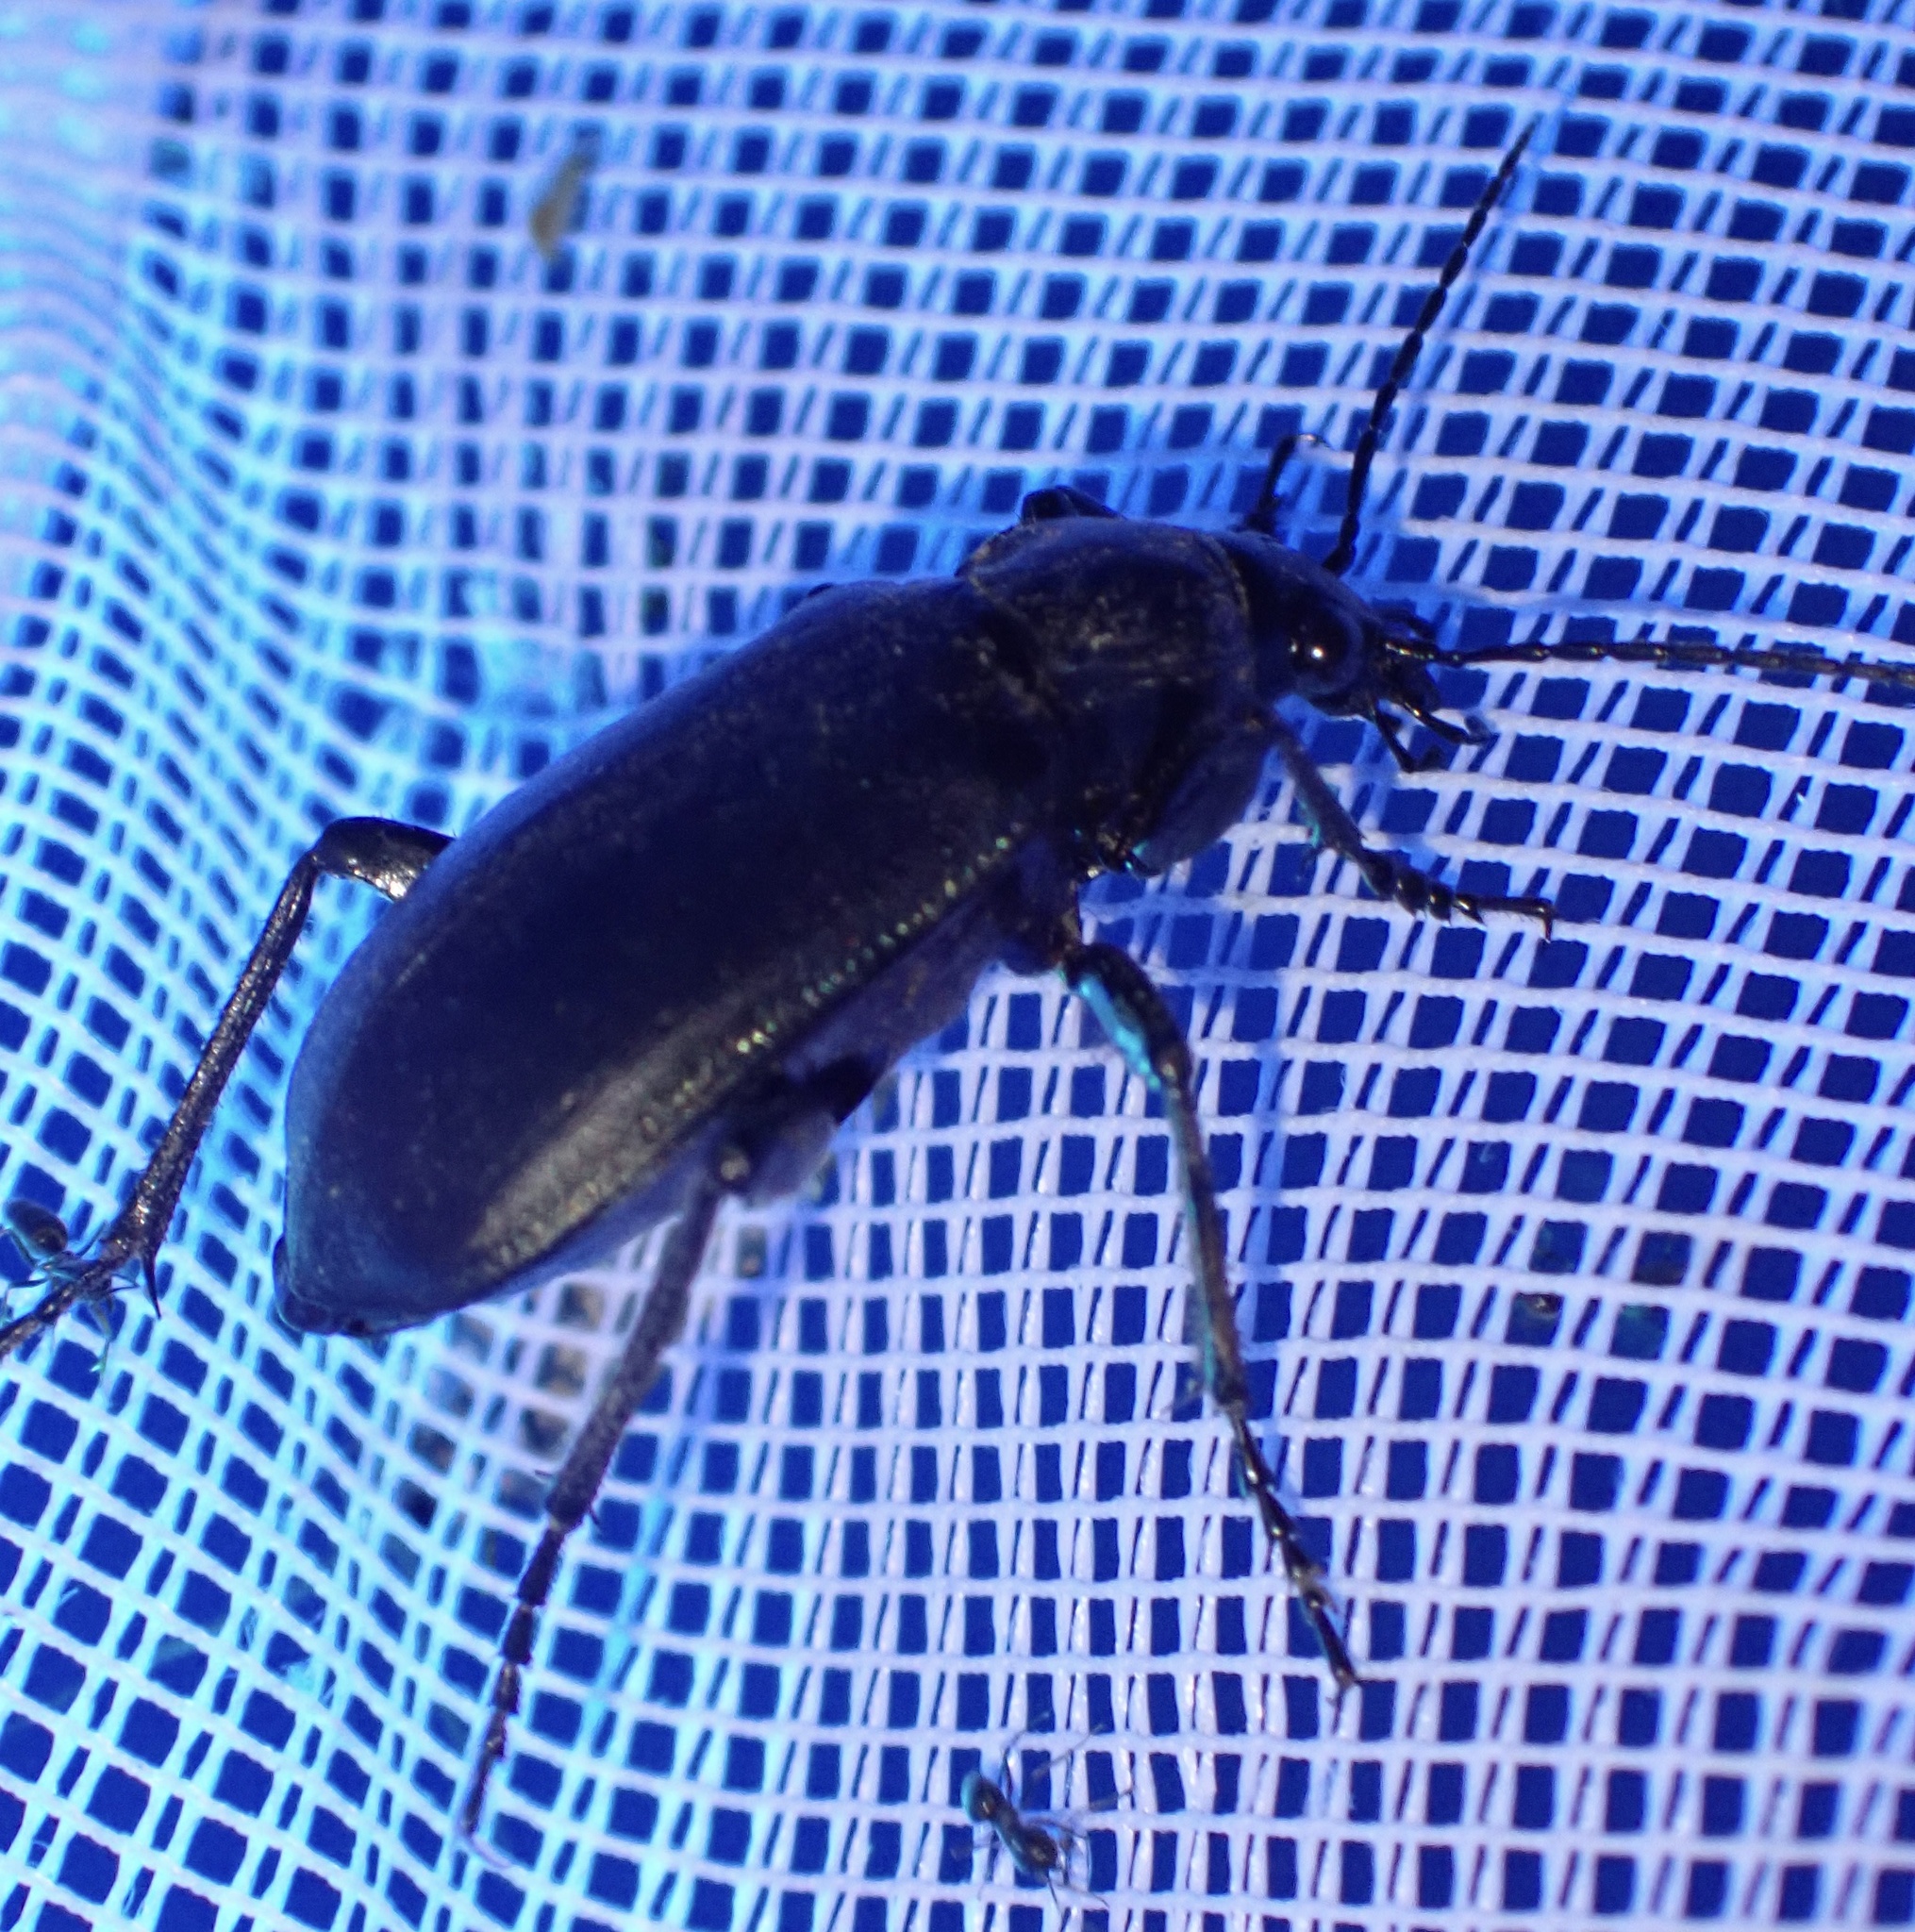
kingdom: Animalia
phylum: Arthropoda
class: Insecta
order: Coleoptera
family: Carabidae
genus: Calosoma
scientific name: Calosoma maderae
